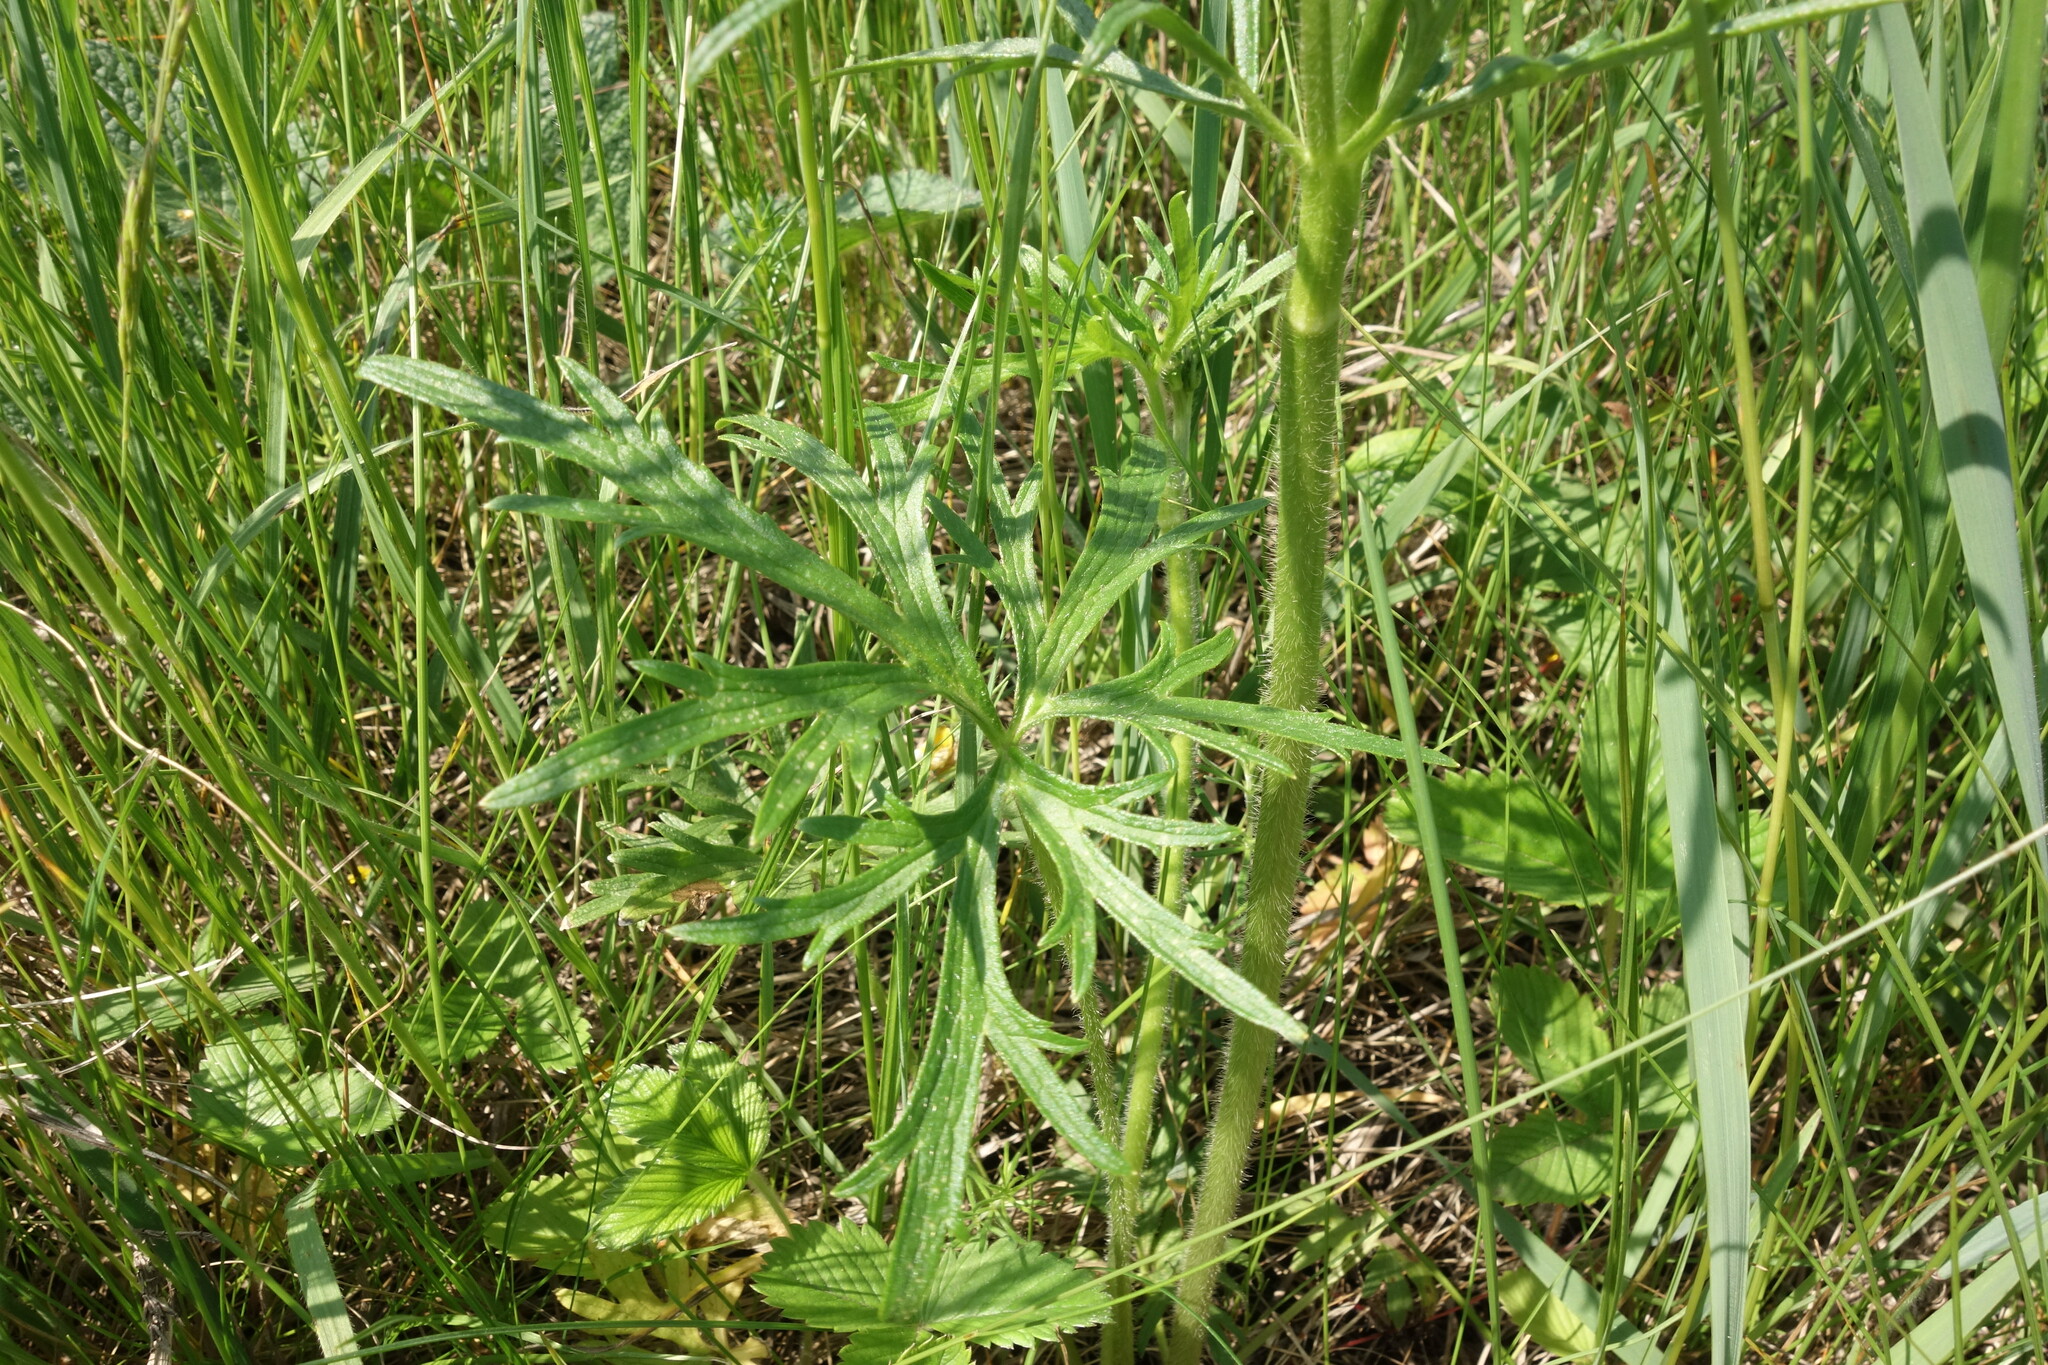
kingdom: Plantae
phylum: Tracheophyta
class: Magnoliopsida
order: Ranunculales
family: Ranunculaceae
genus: Ranunculus
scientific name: Ranunculus polyanthemos
